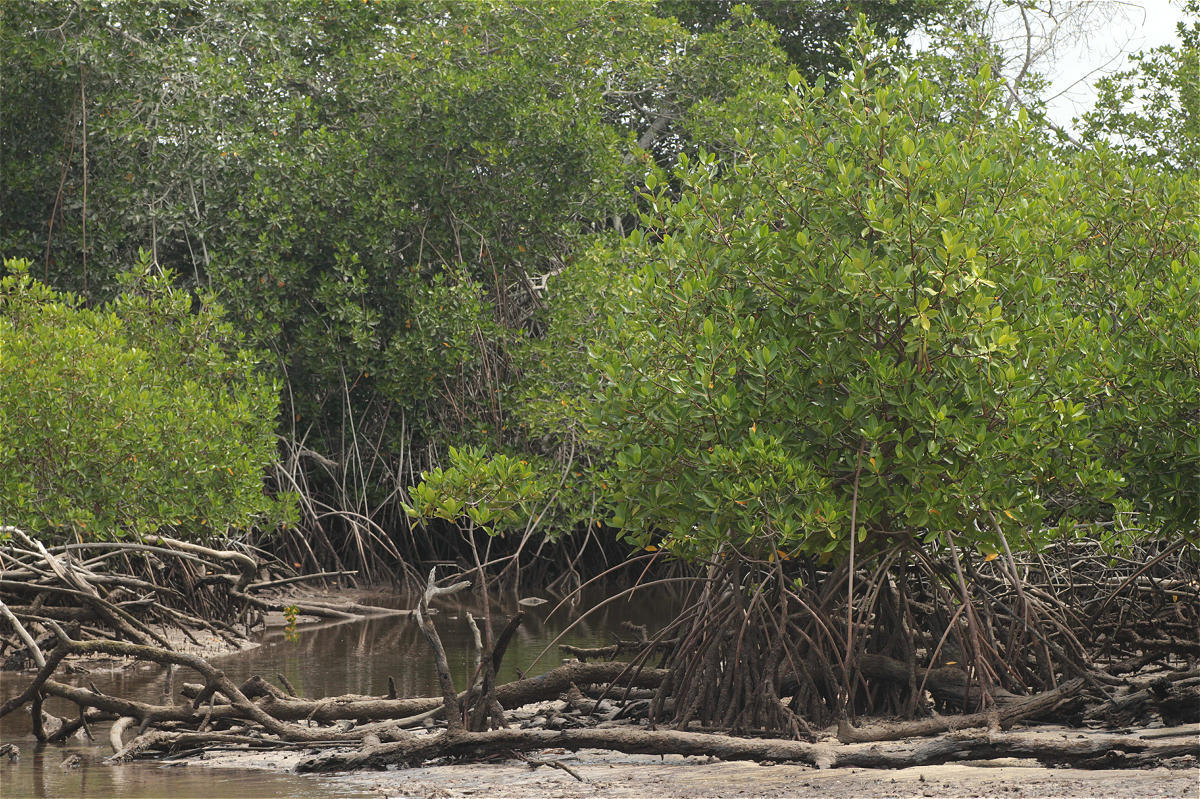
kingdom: Plantae
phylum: Tracheophyta
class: Magnoliopsida
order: Malpighiales
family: Rhizophoraceae
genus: Rhizophora
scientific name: Rhizophora mangle
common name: Red mangrove
